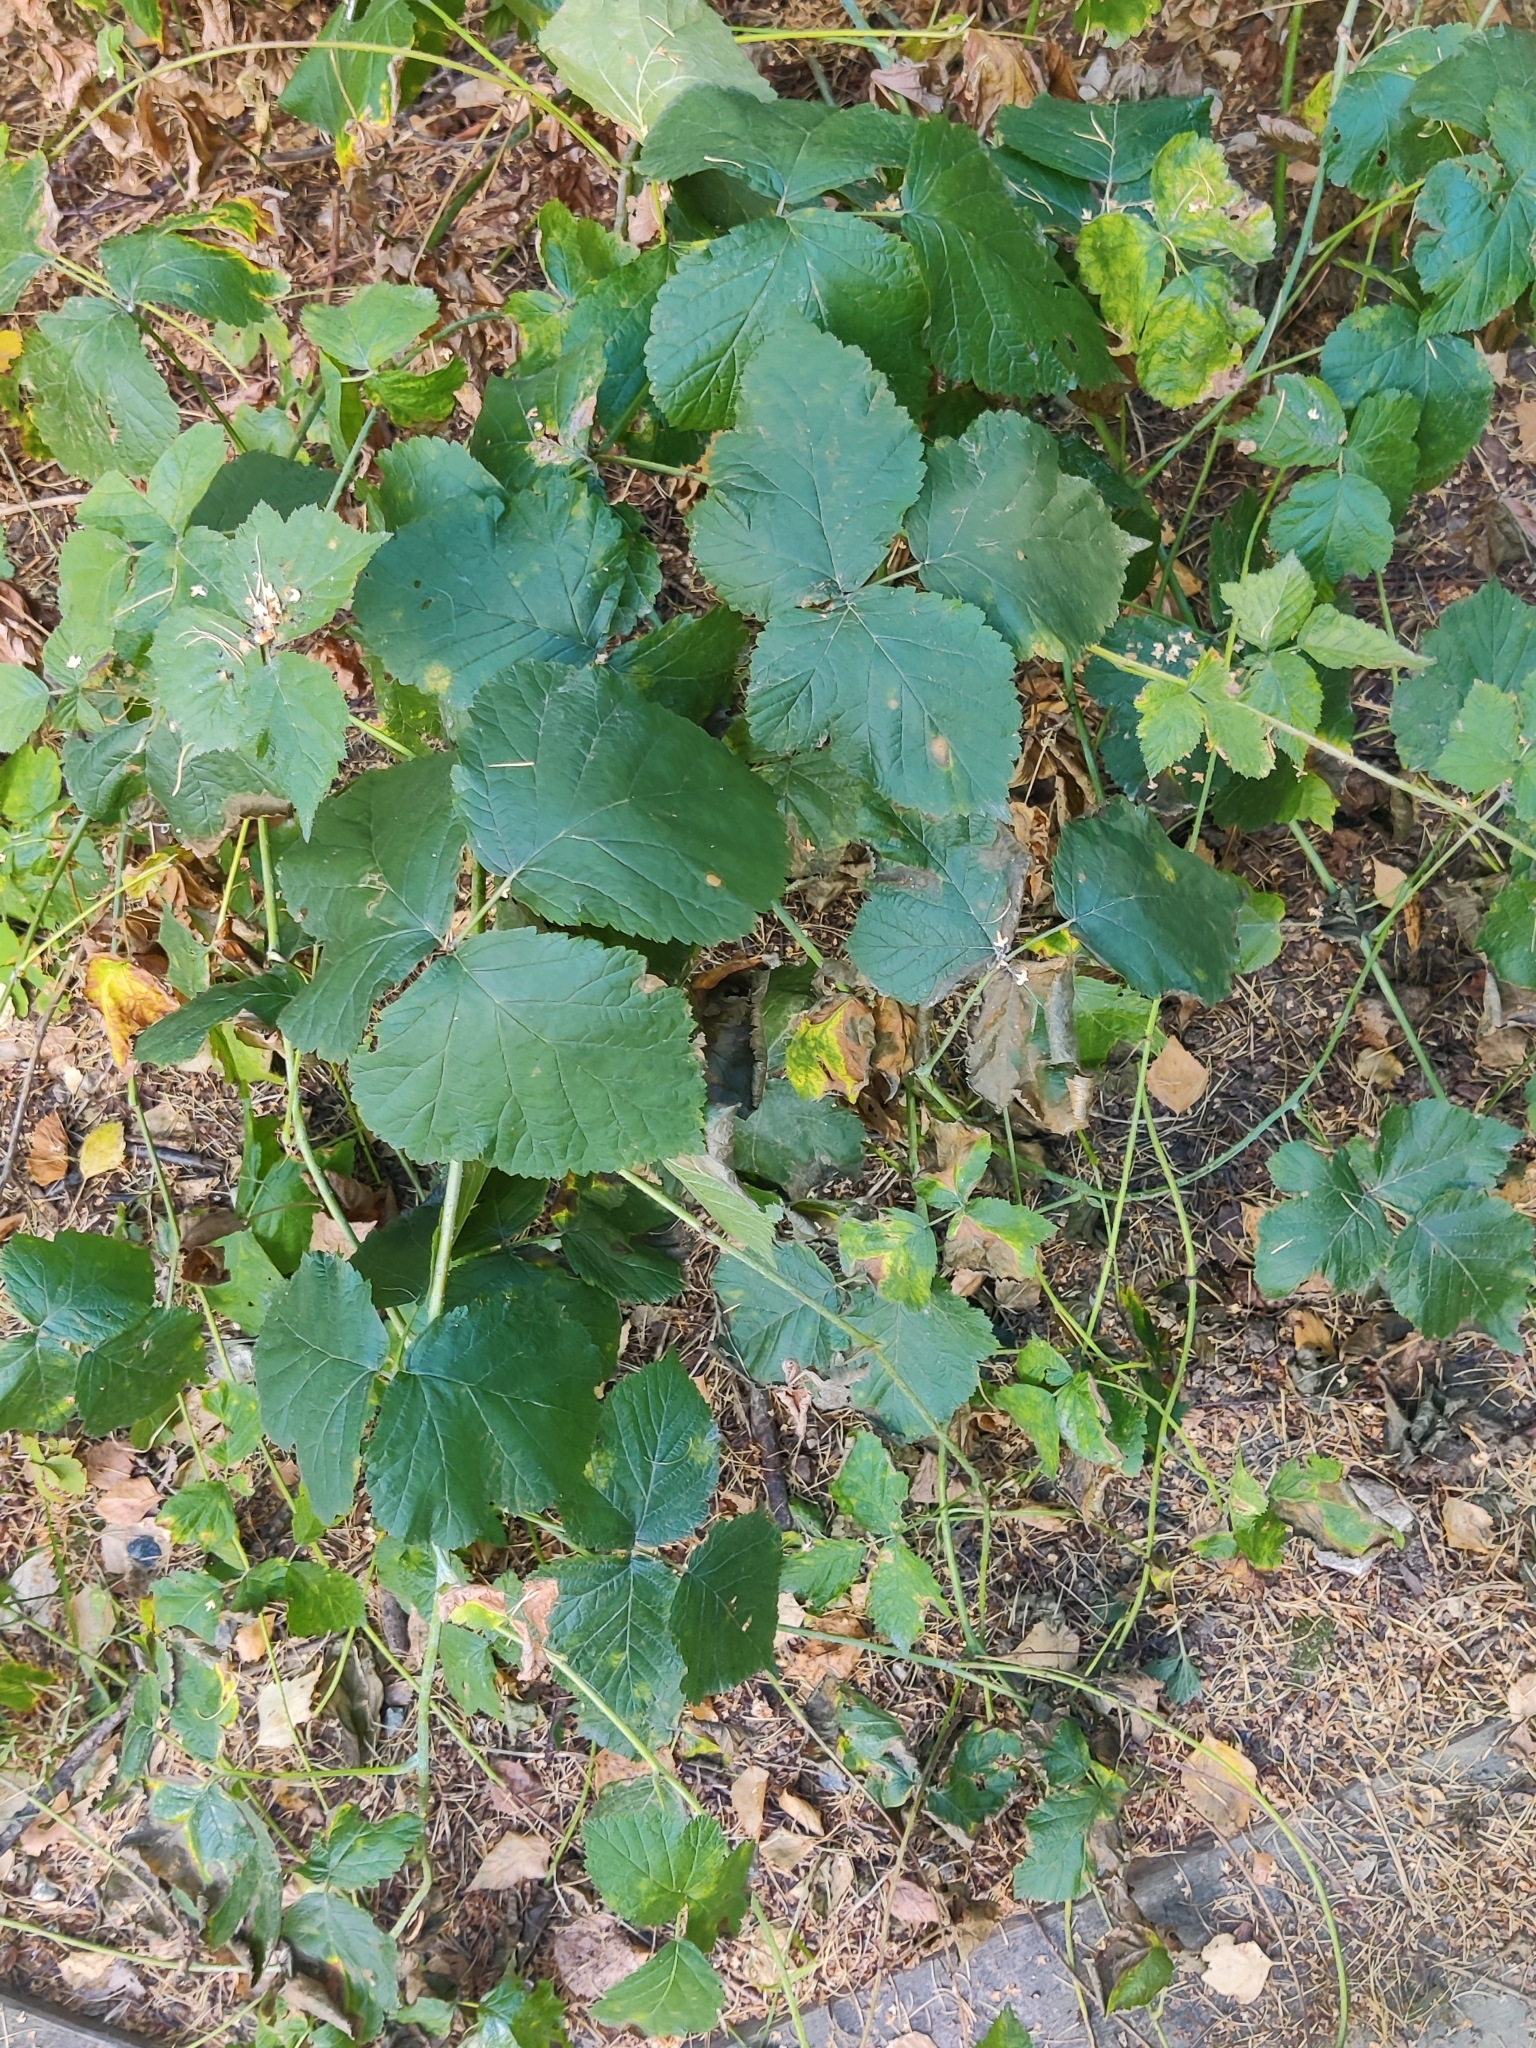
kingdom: Plantae
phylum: Tracheophyta
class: Magnoliopsida
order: Rosales
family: Rosaceae
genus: Rubus
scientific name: Rubus idaeus
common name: Raspberry
